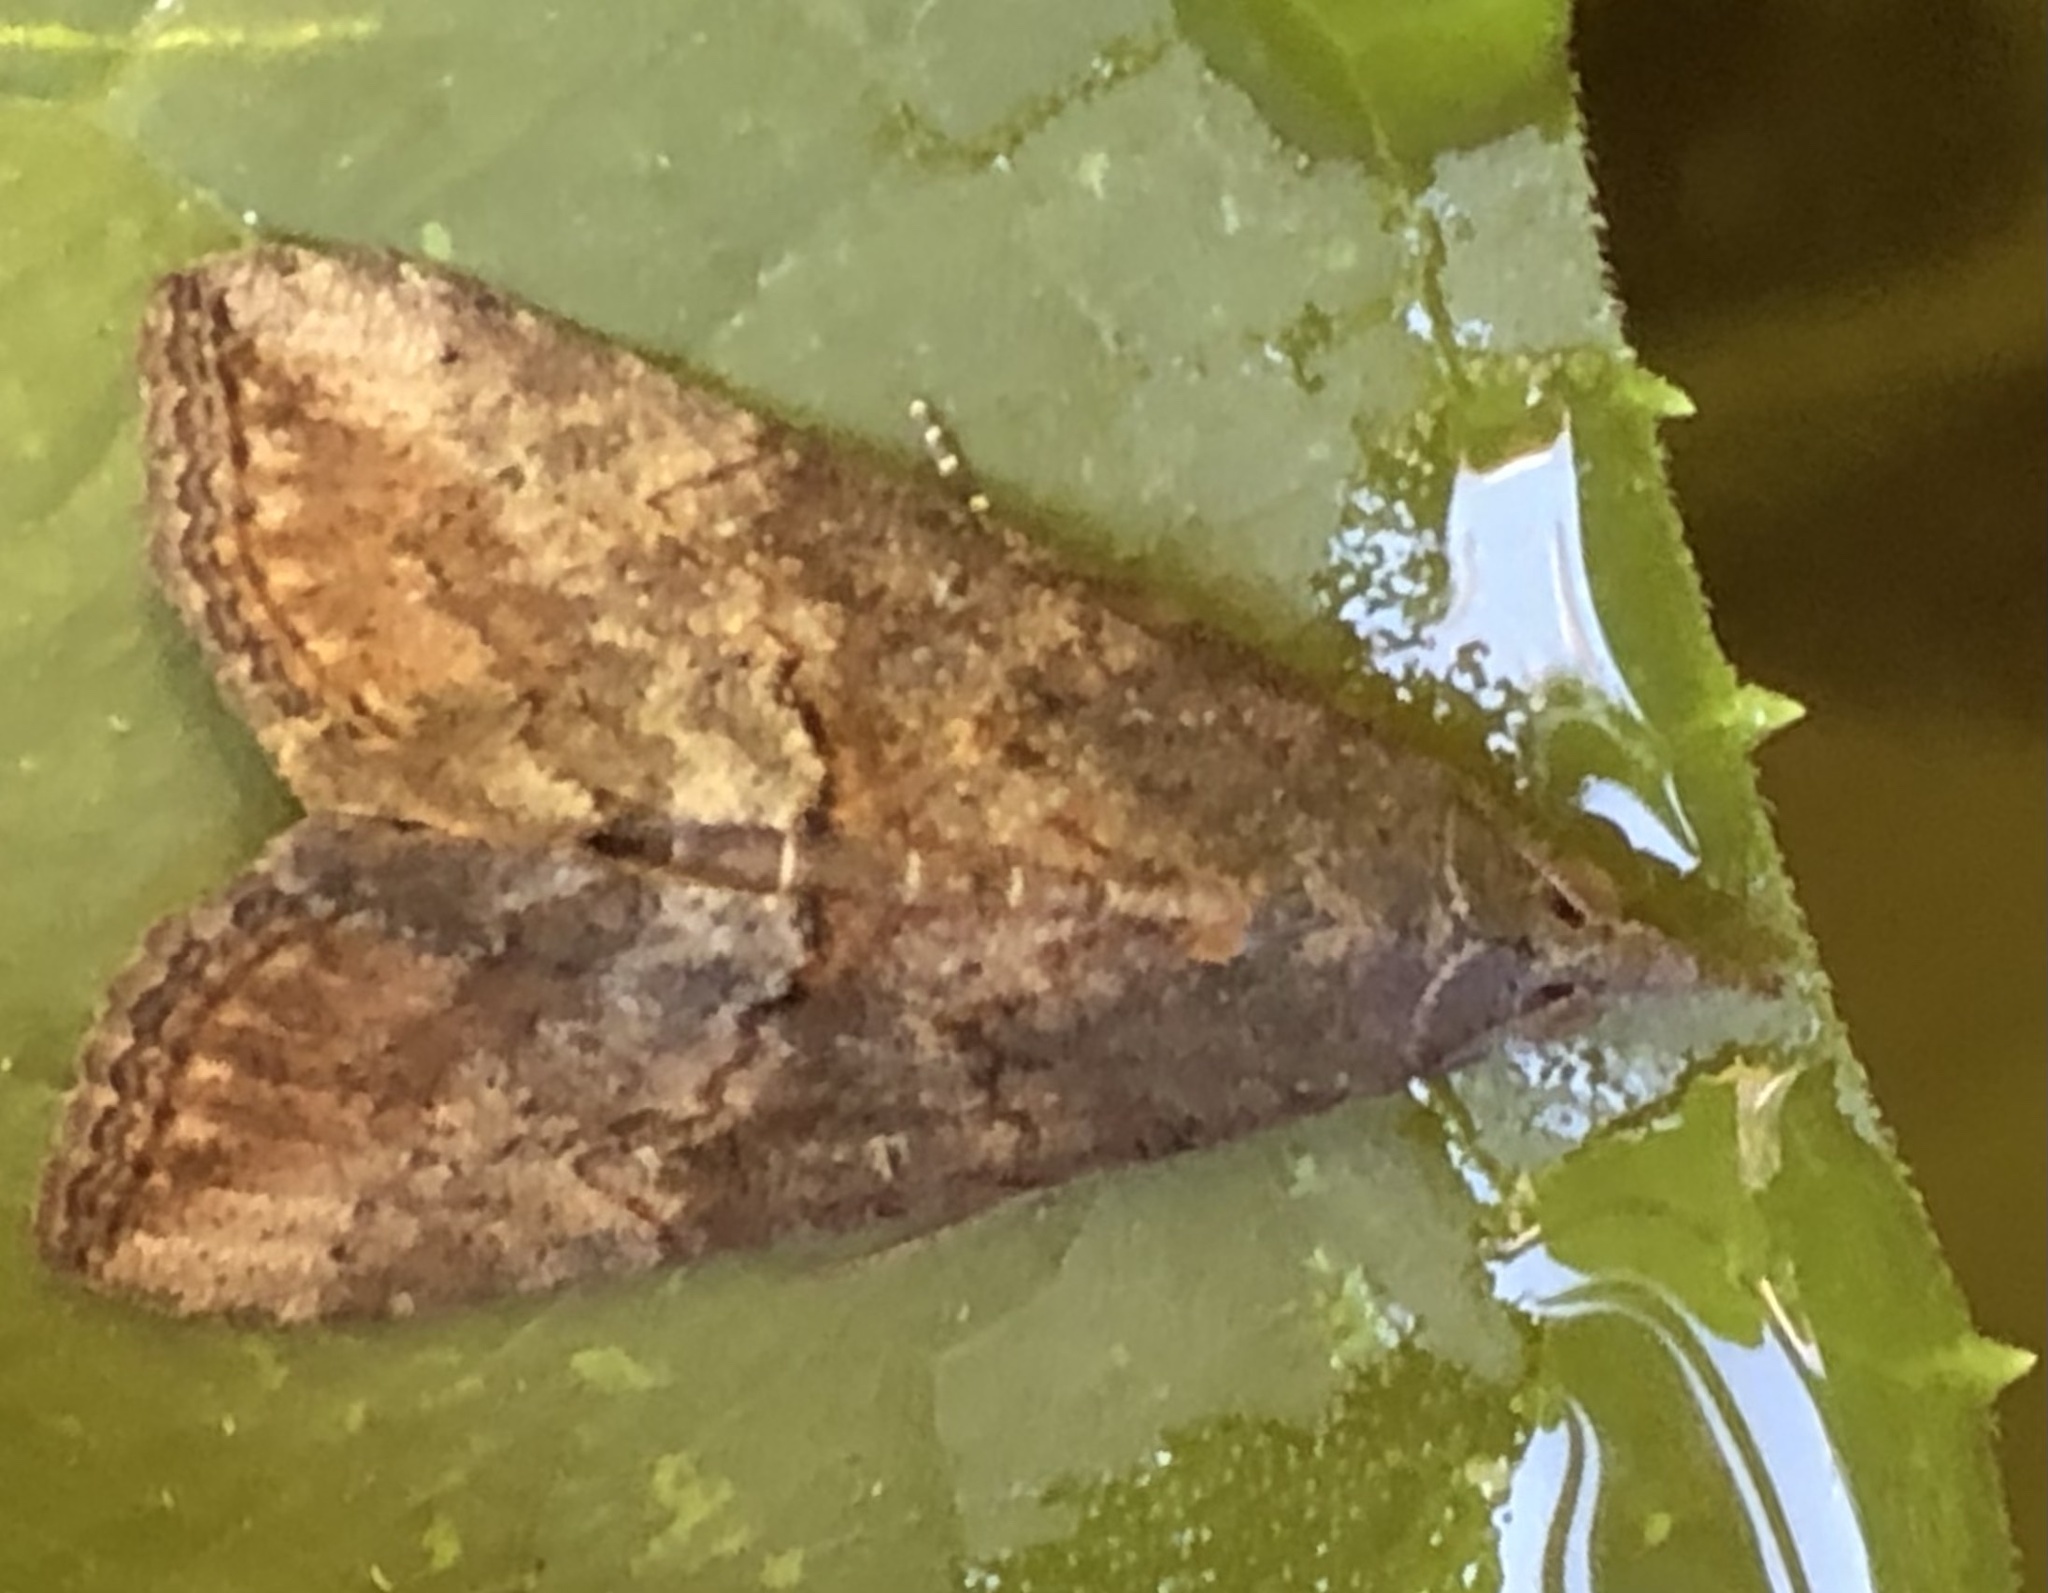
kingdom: Animalia
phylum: Arthropoda
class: Insecta
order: Lepidoptera
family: Erebidae
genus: Hypena
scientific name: Hypena scabra
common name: Green cloverworm
